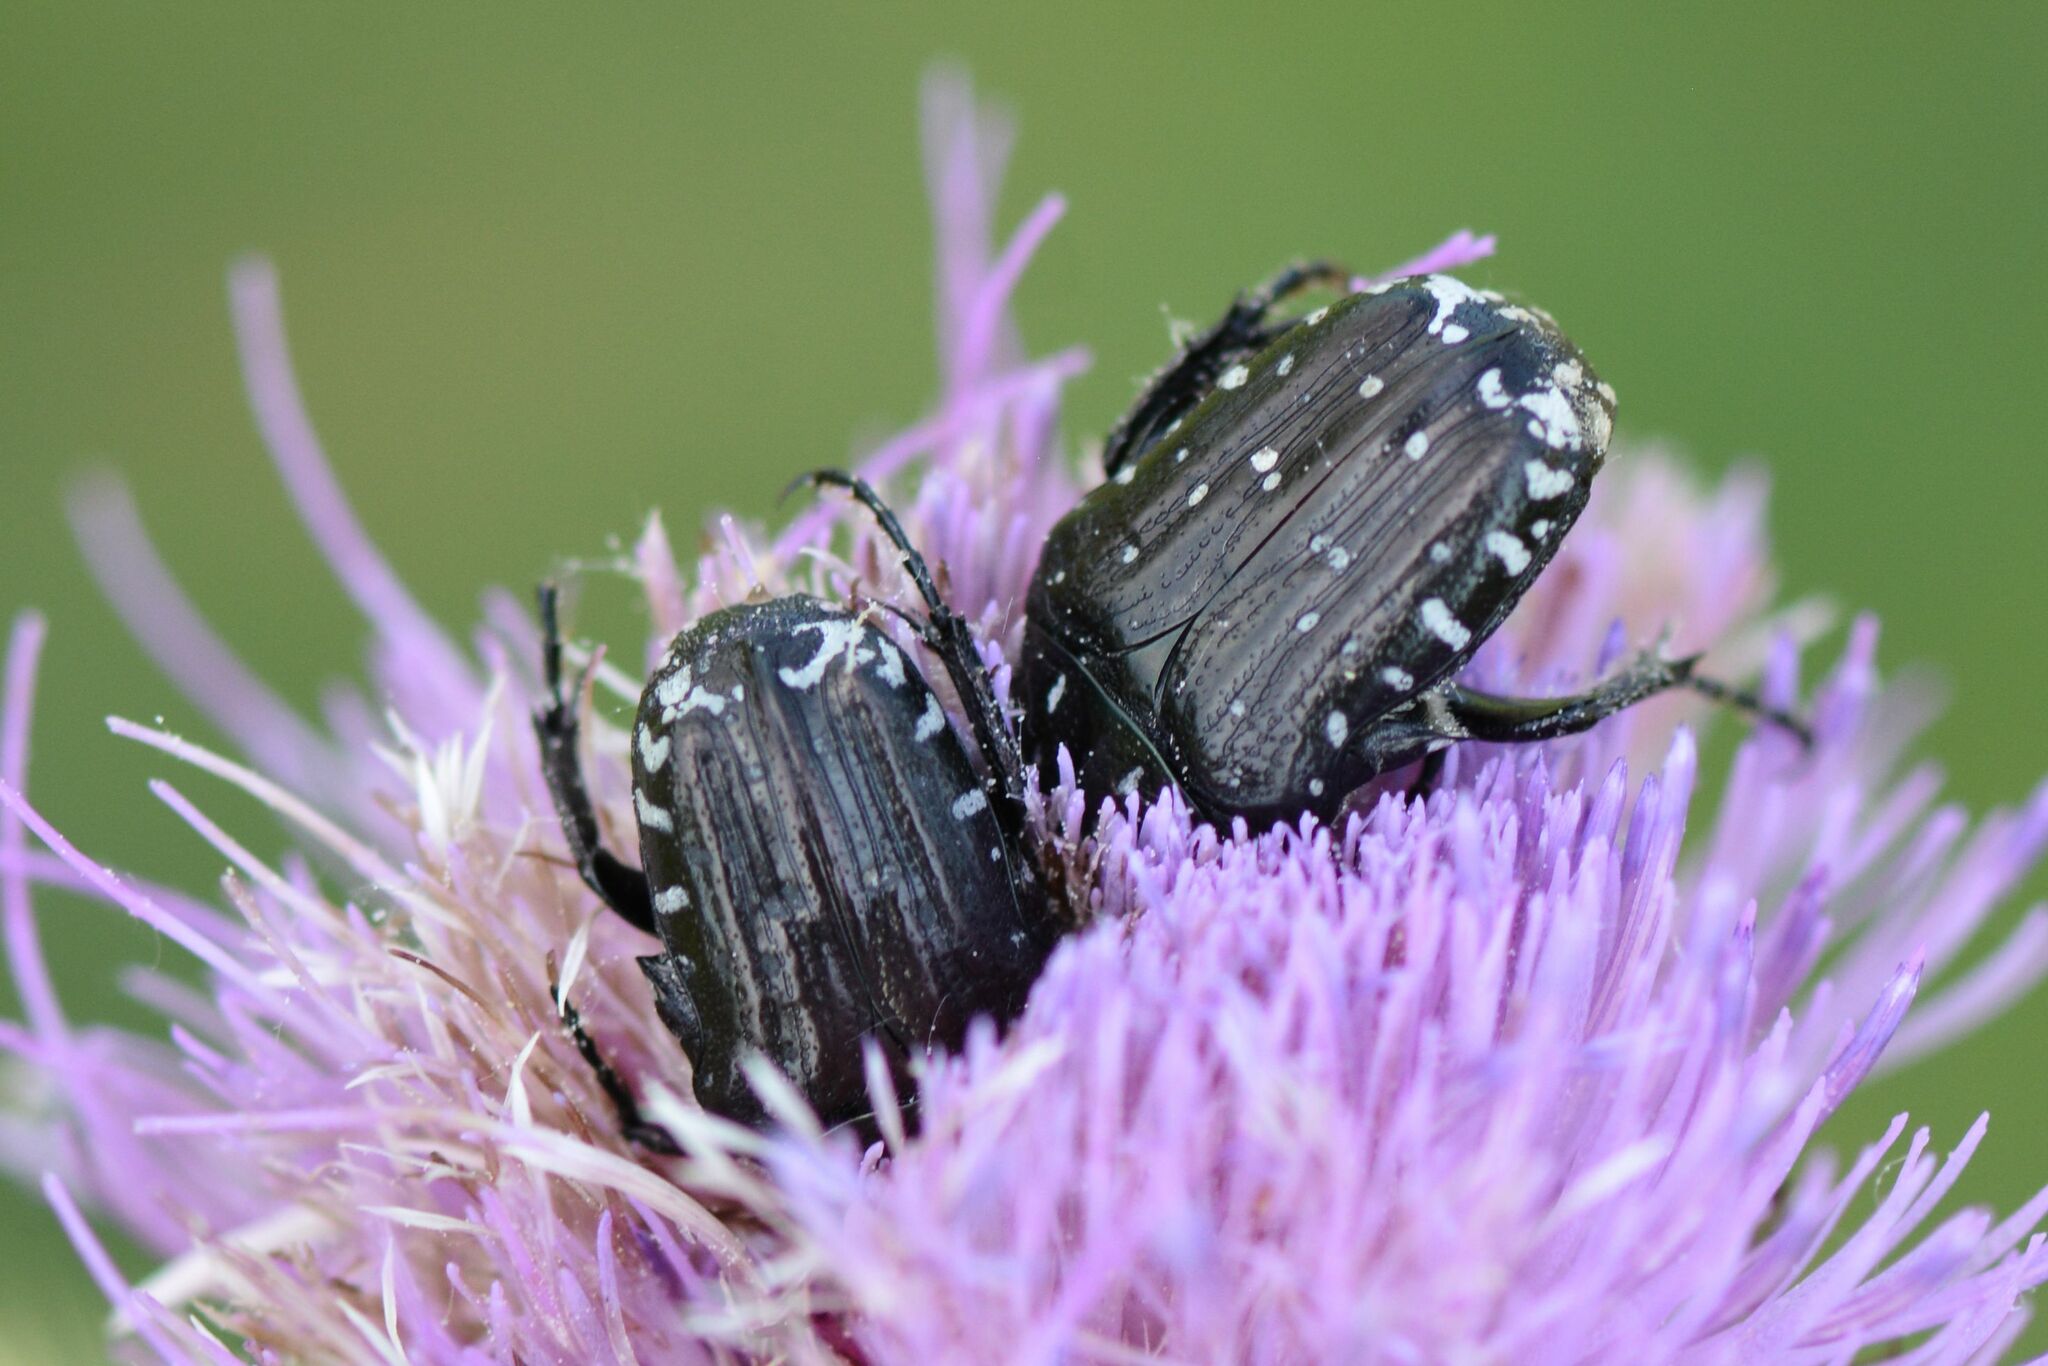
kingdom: Animalia
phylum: Arthropoda
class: Insecta
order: Coleoptera
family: Scarabaeidae
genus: Oxythyrea
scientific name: Oxythyrea funesta
